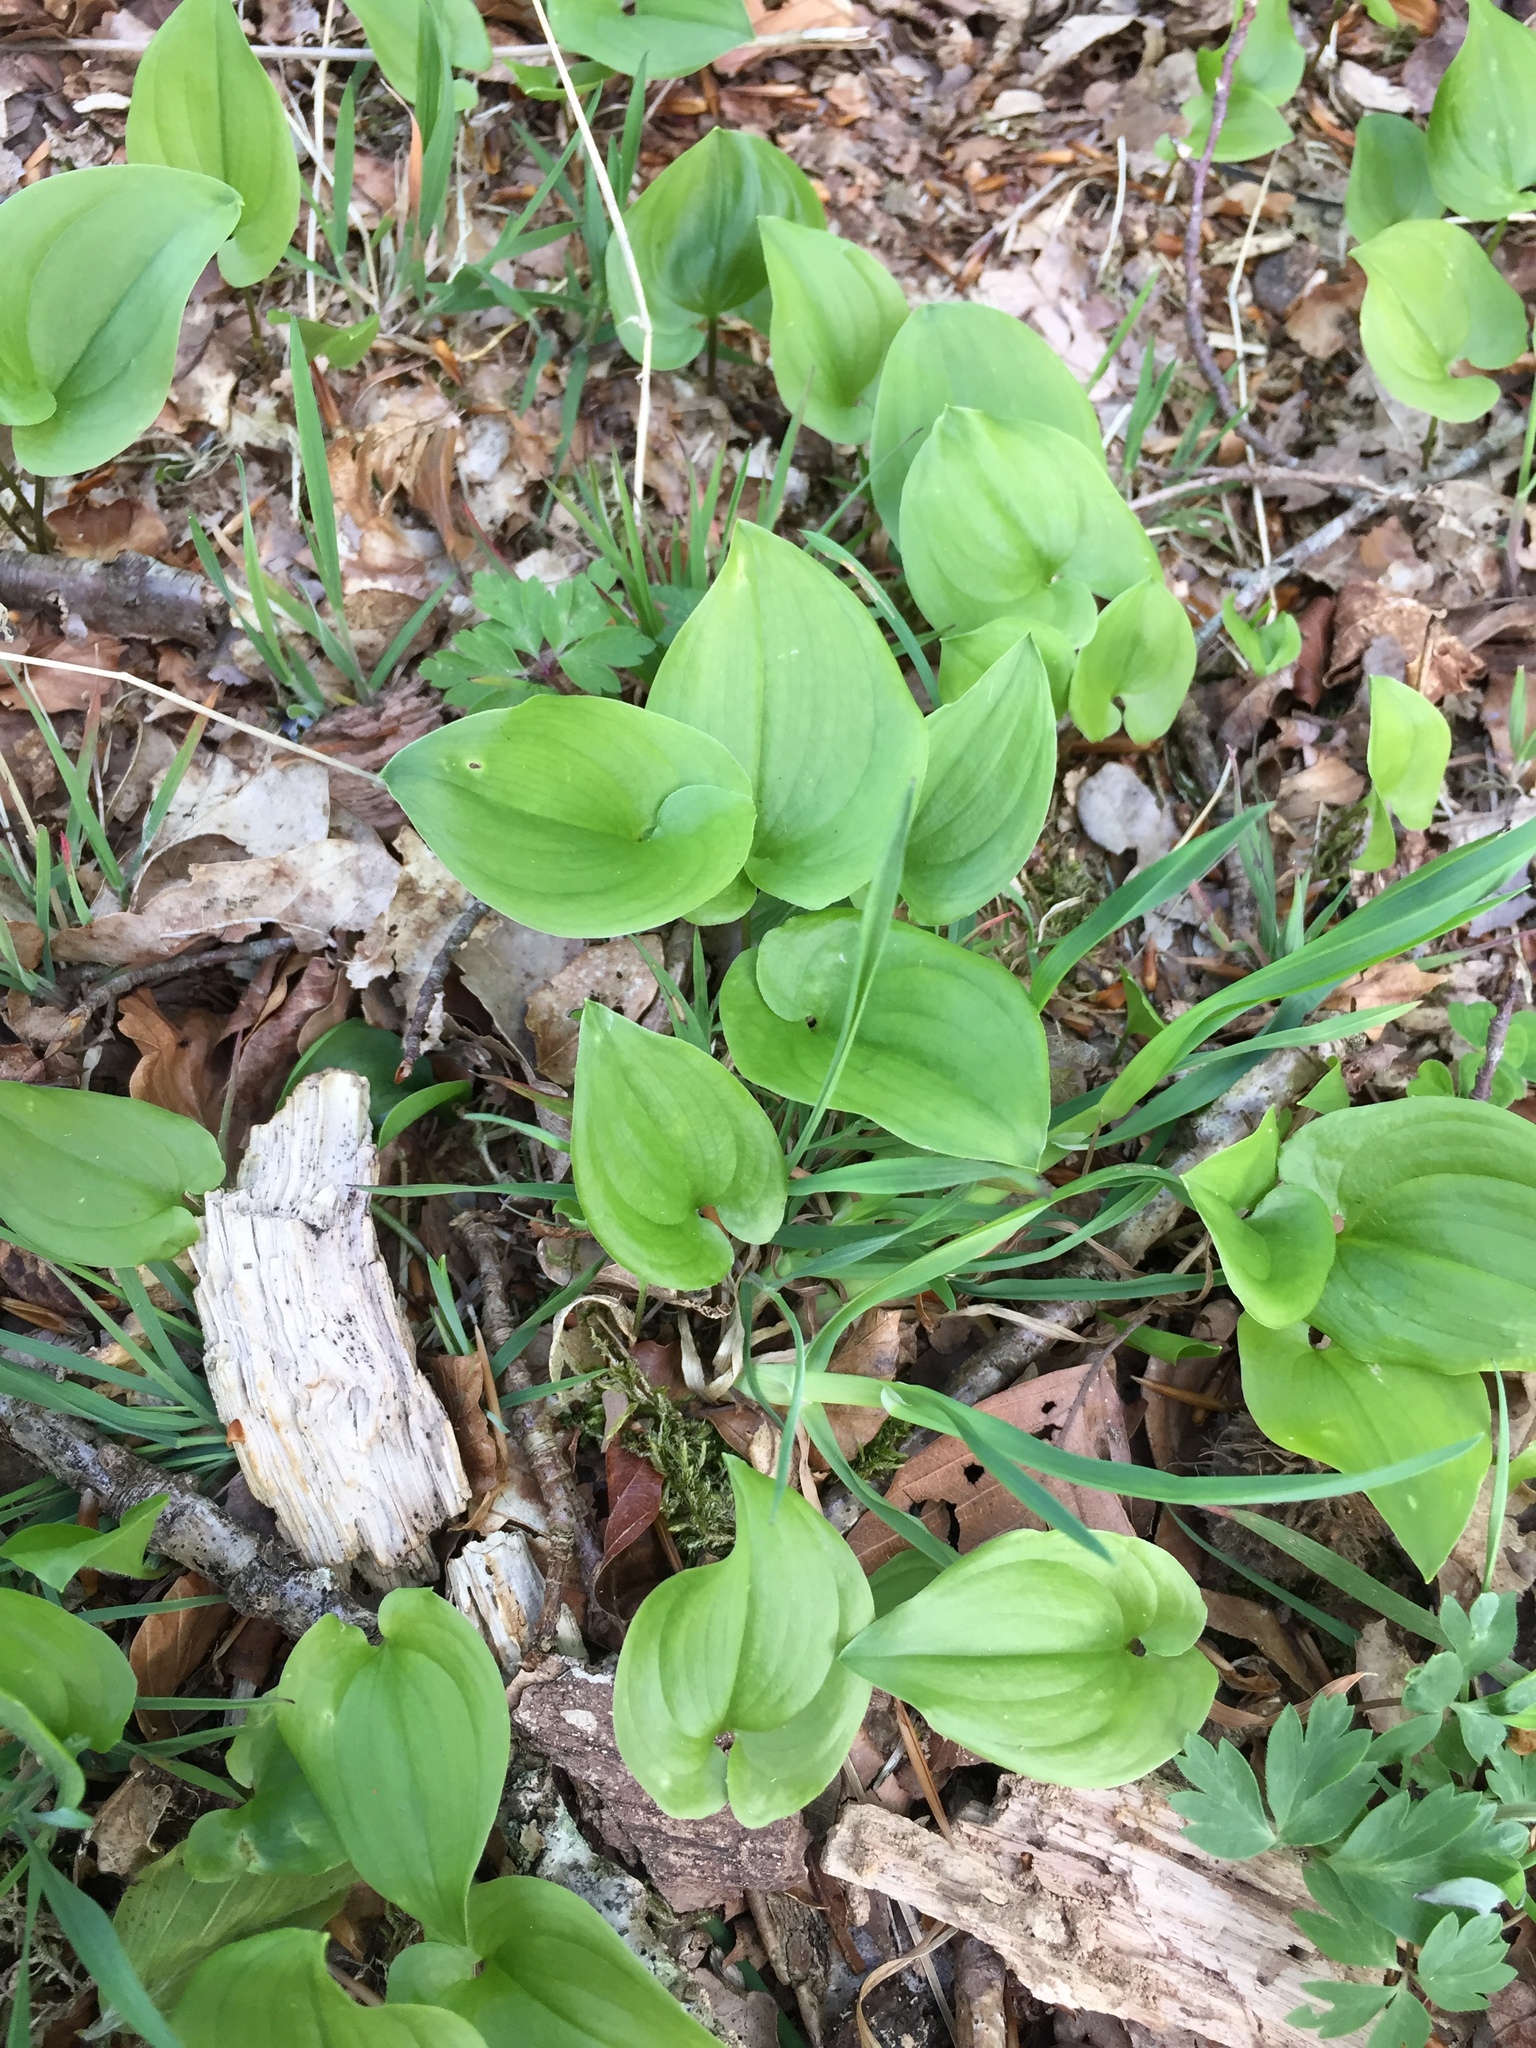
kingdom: Plantae
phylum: Tracheophyta
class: Liliopsida
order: Asparagales
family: Asparagaceae
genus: Maianthemum
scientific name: Maianthemum bifolium
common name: May lily
